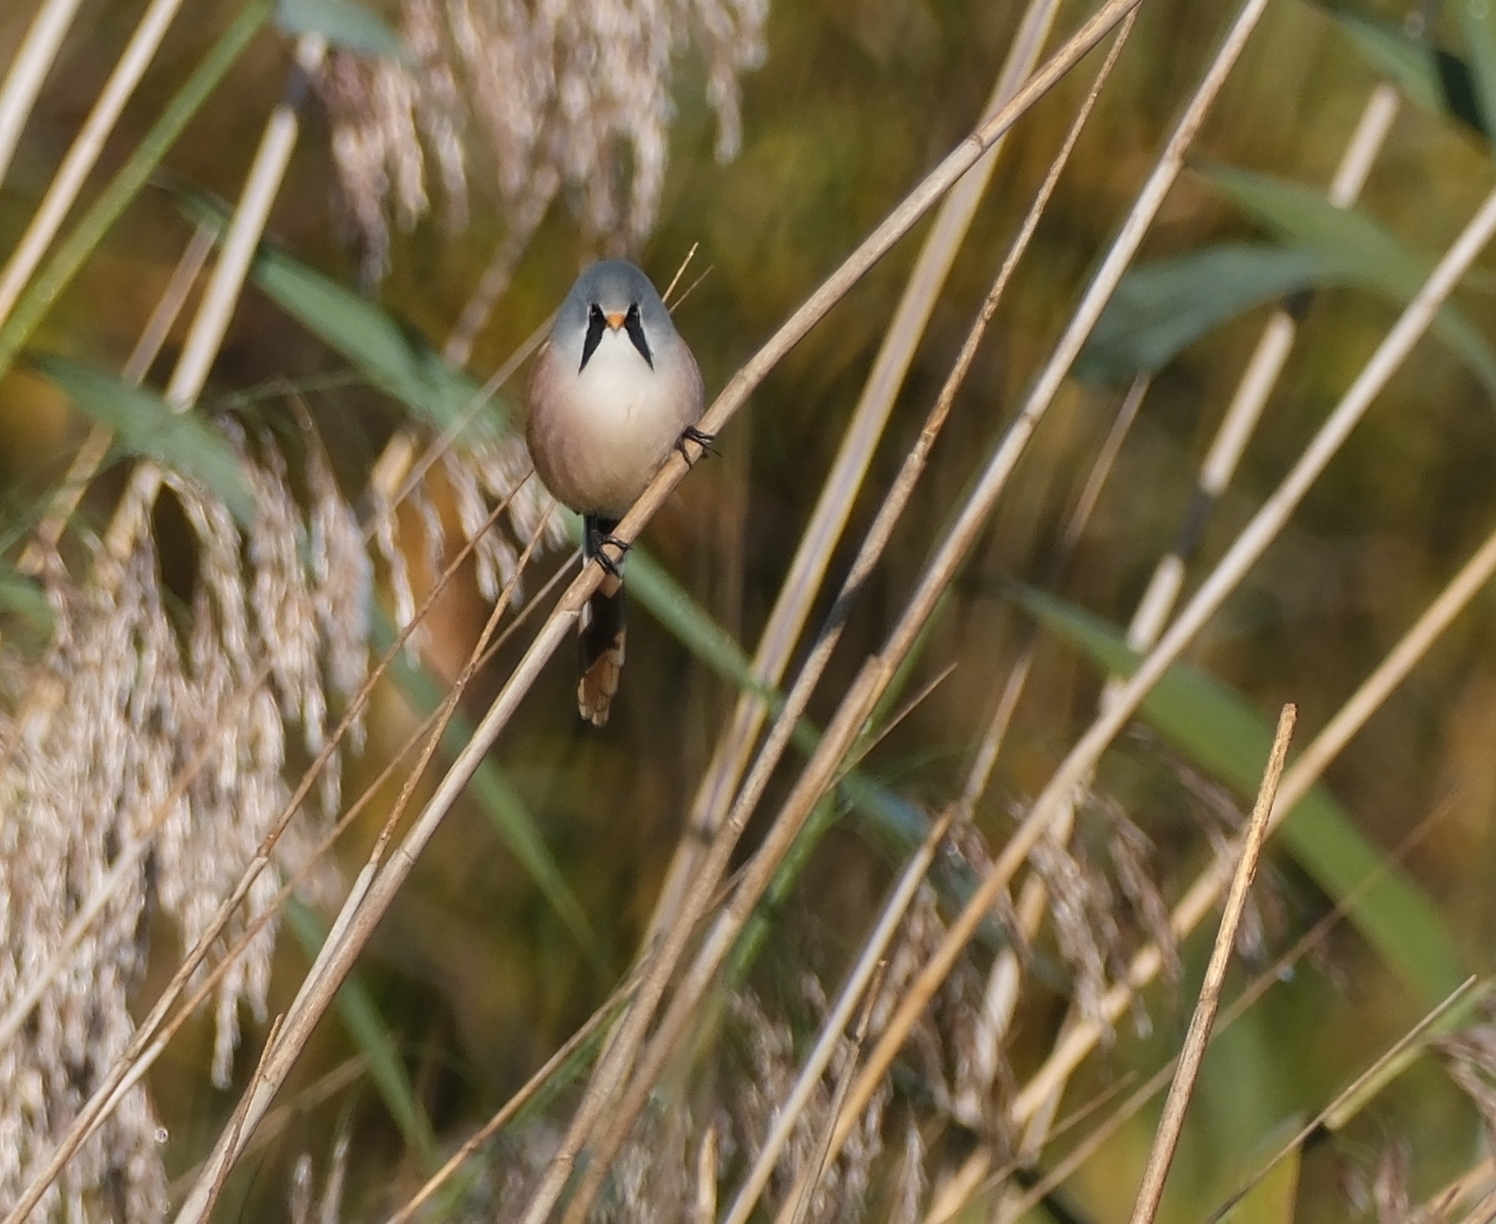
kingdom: Animalia
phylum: Chordata
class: Aves
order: Passeriformes
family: Panuridae
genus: Panurus
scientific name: Panurus biarmicus
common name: Bearded reedling
